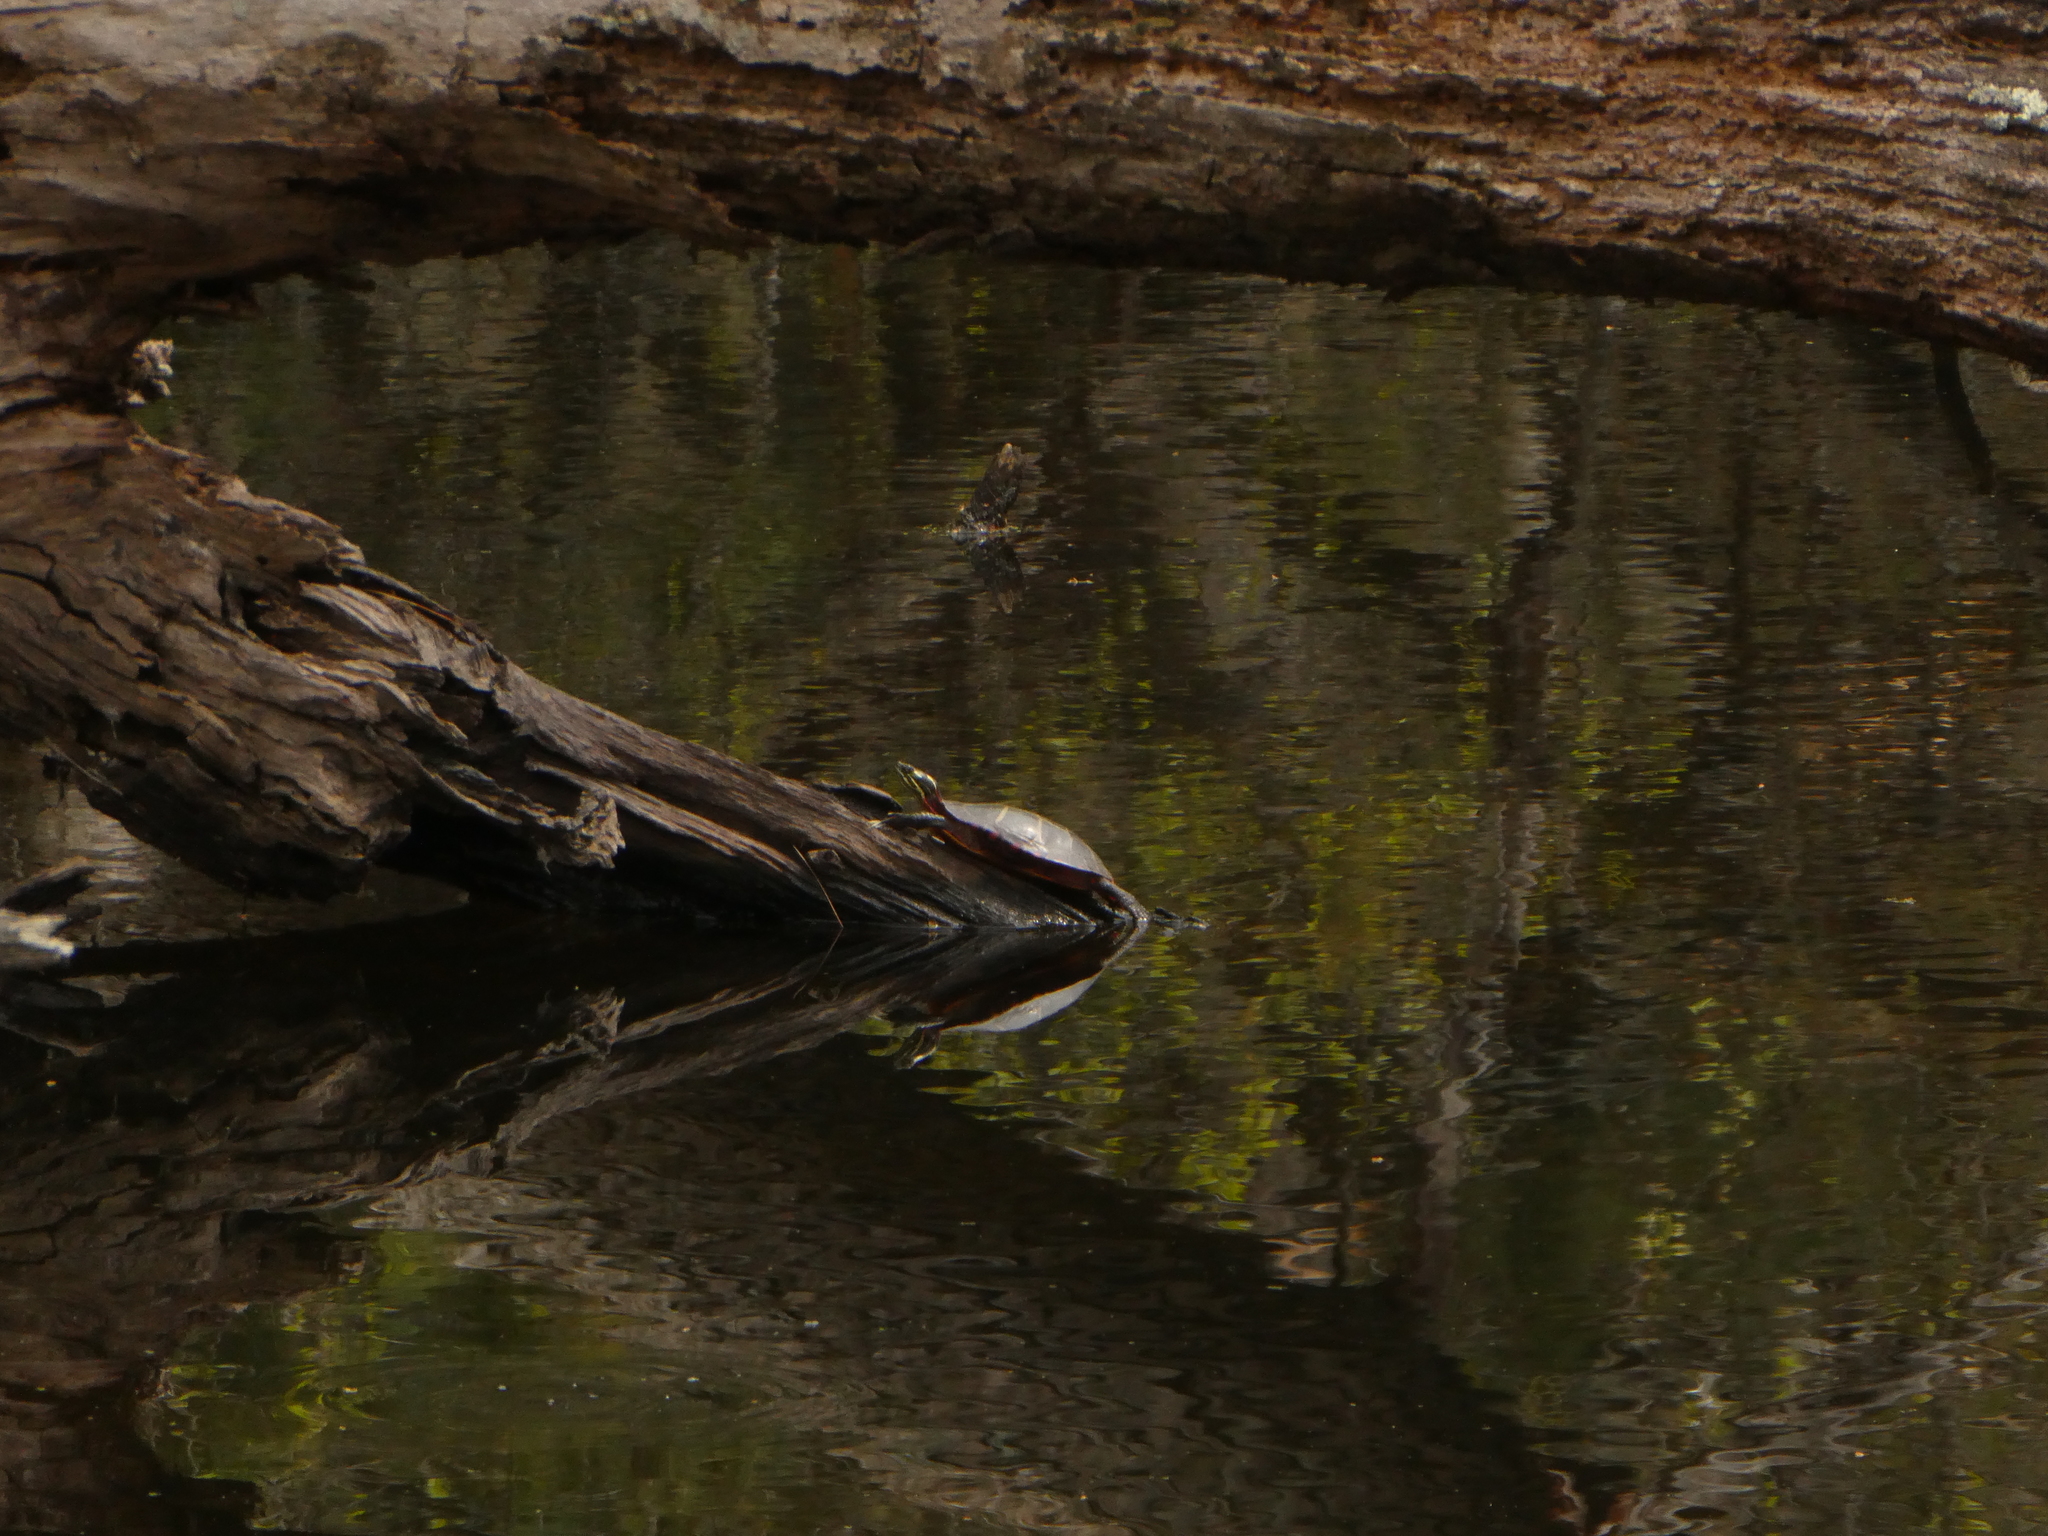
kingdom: Animalia
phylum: Chordata
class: Testudines
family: Emydidae
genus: Chrysemys
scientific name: Chrysemys picta
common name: Painted turtle
